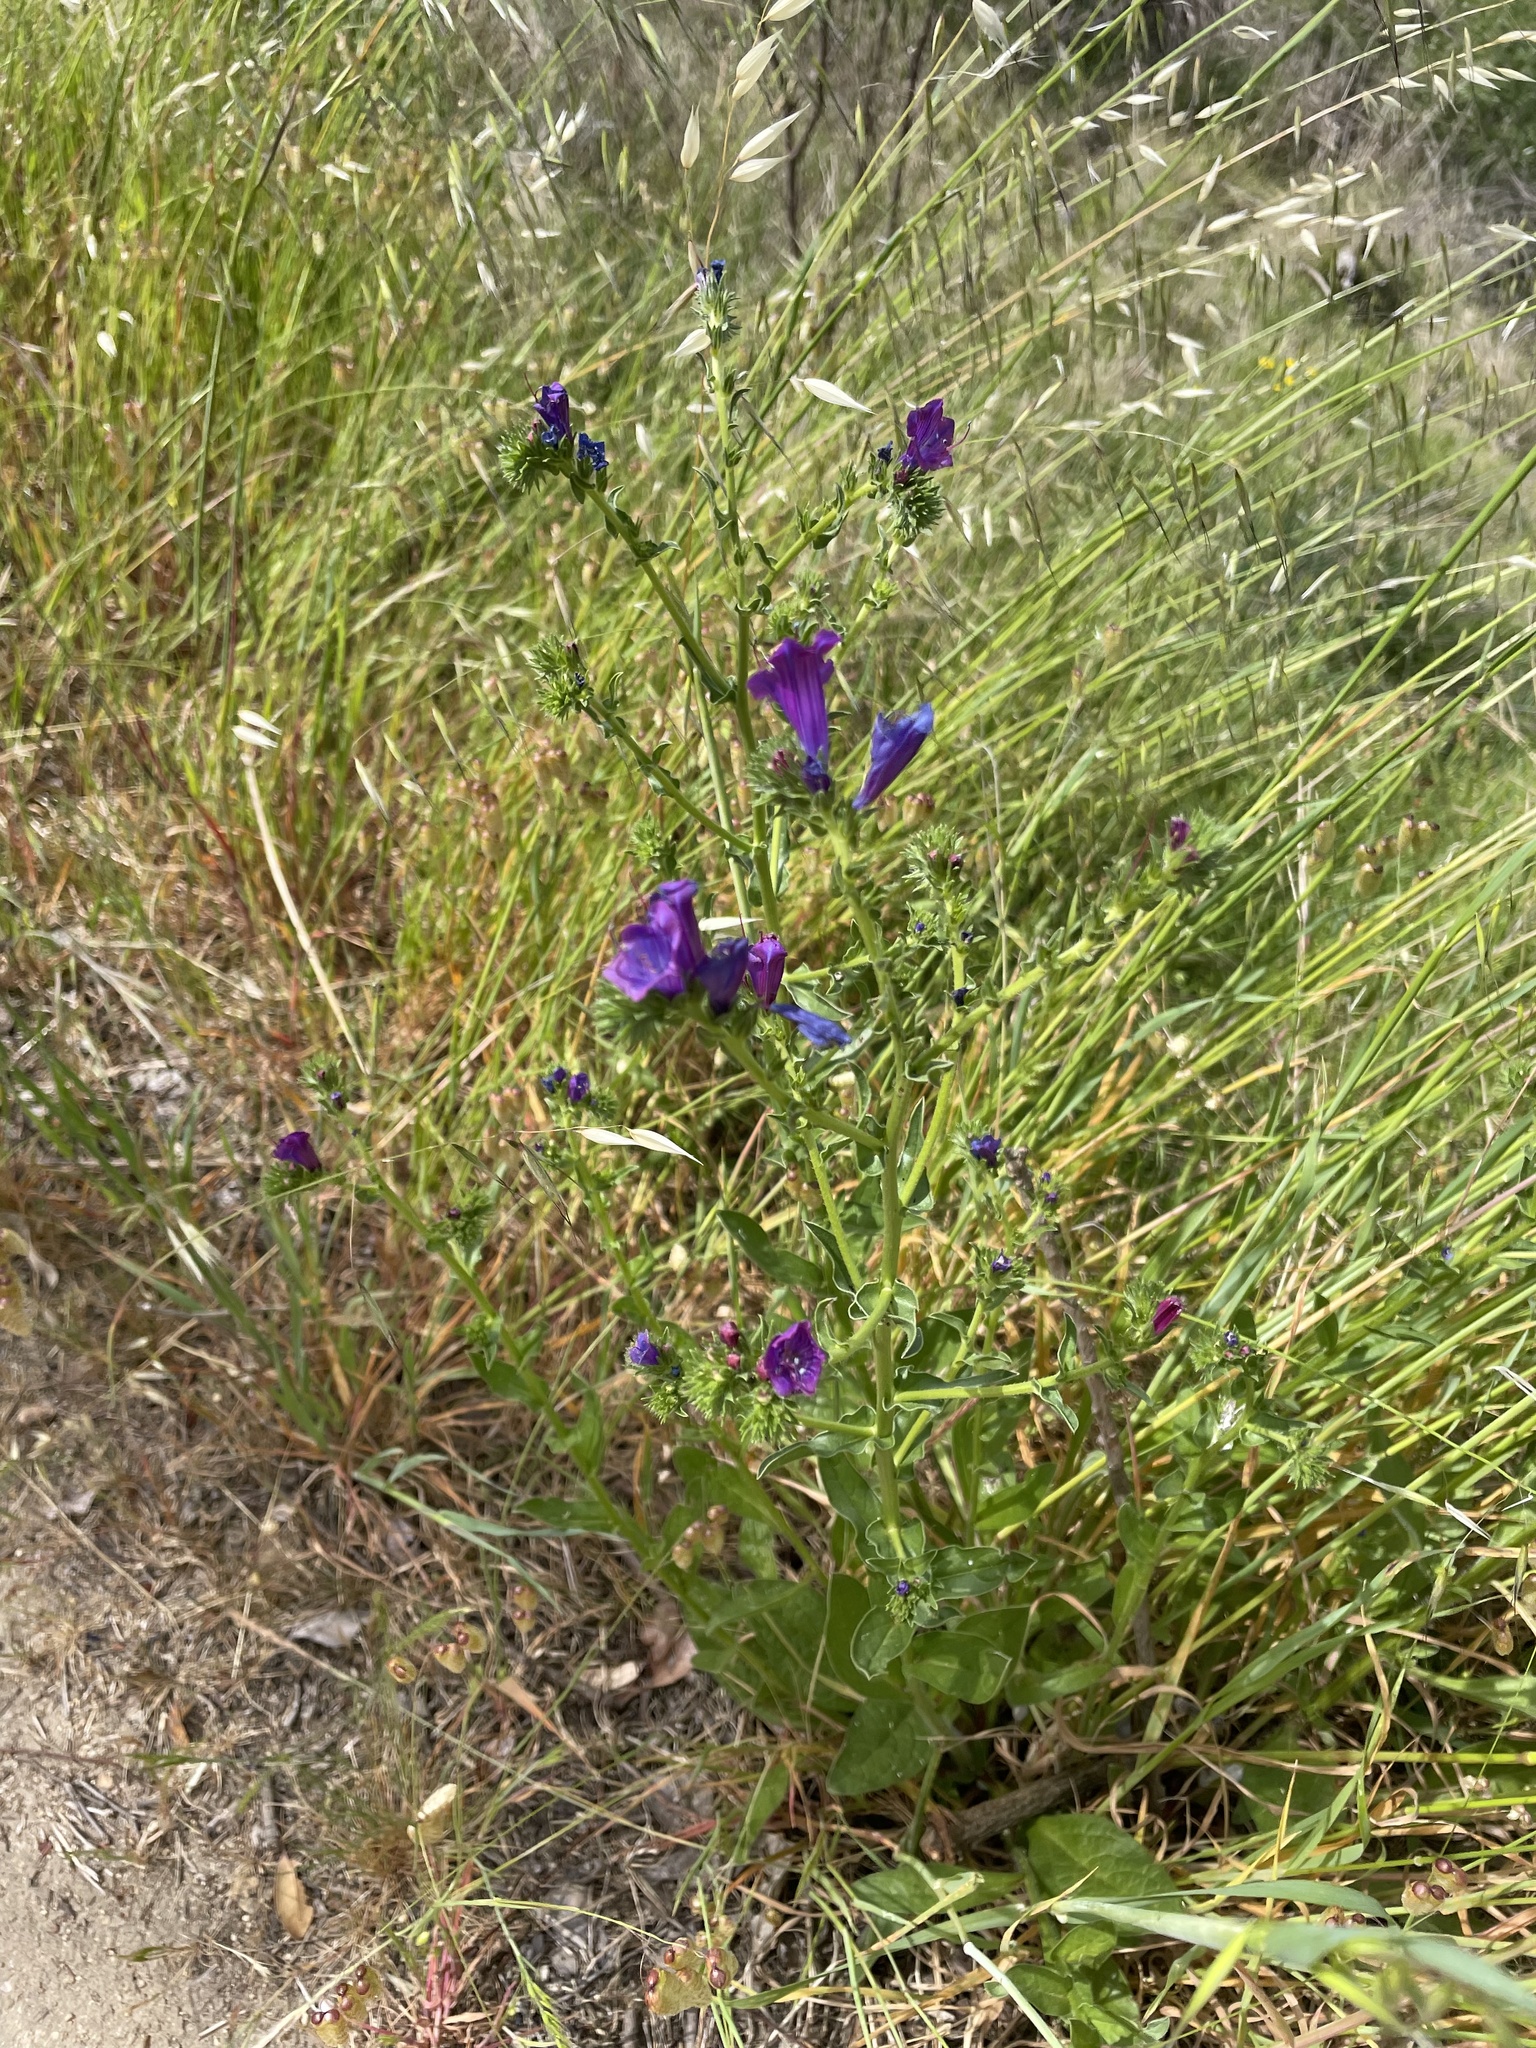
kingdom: Plantae
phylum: Tracheophyta
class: Magnoliopsida
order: Boraginales
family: Boraginaceae
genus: Echium
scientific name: Echium plantagineum
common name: Purple viper's-bugloss
